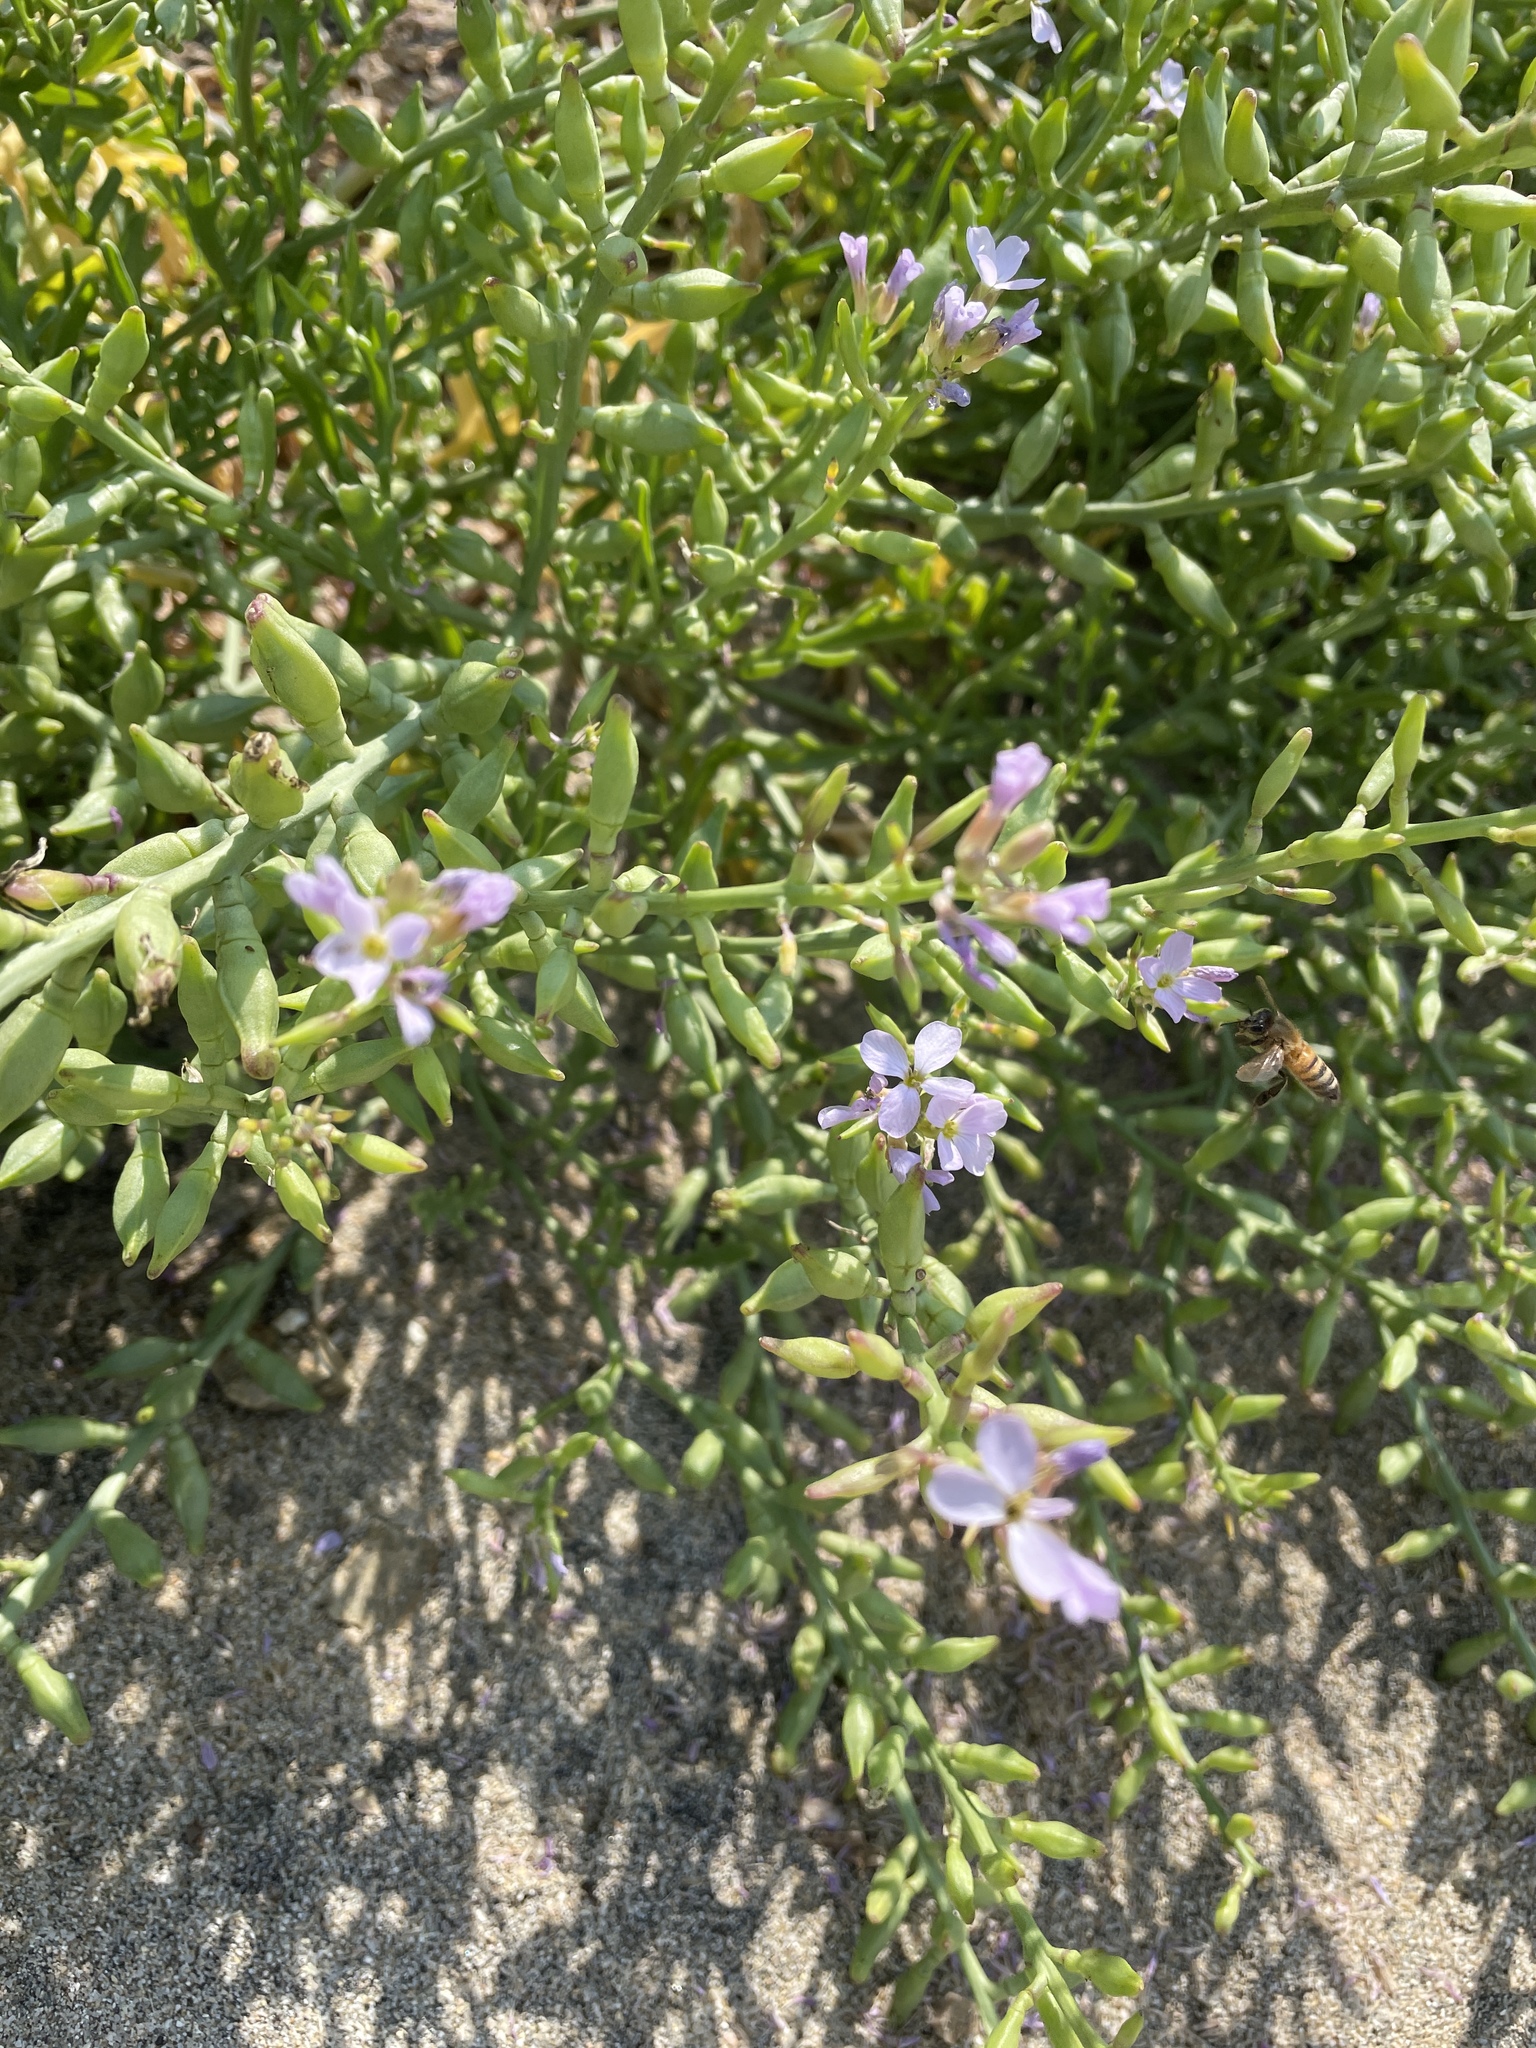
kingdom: Plantae
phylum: Tracheophyta
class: Magnoliopsida
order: Brassicales
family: Brassicaceae
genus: Cakile
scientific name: Cakile maritima
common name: Sea rocket
